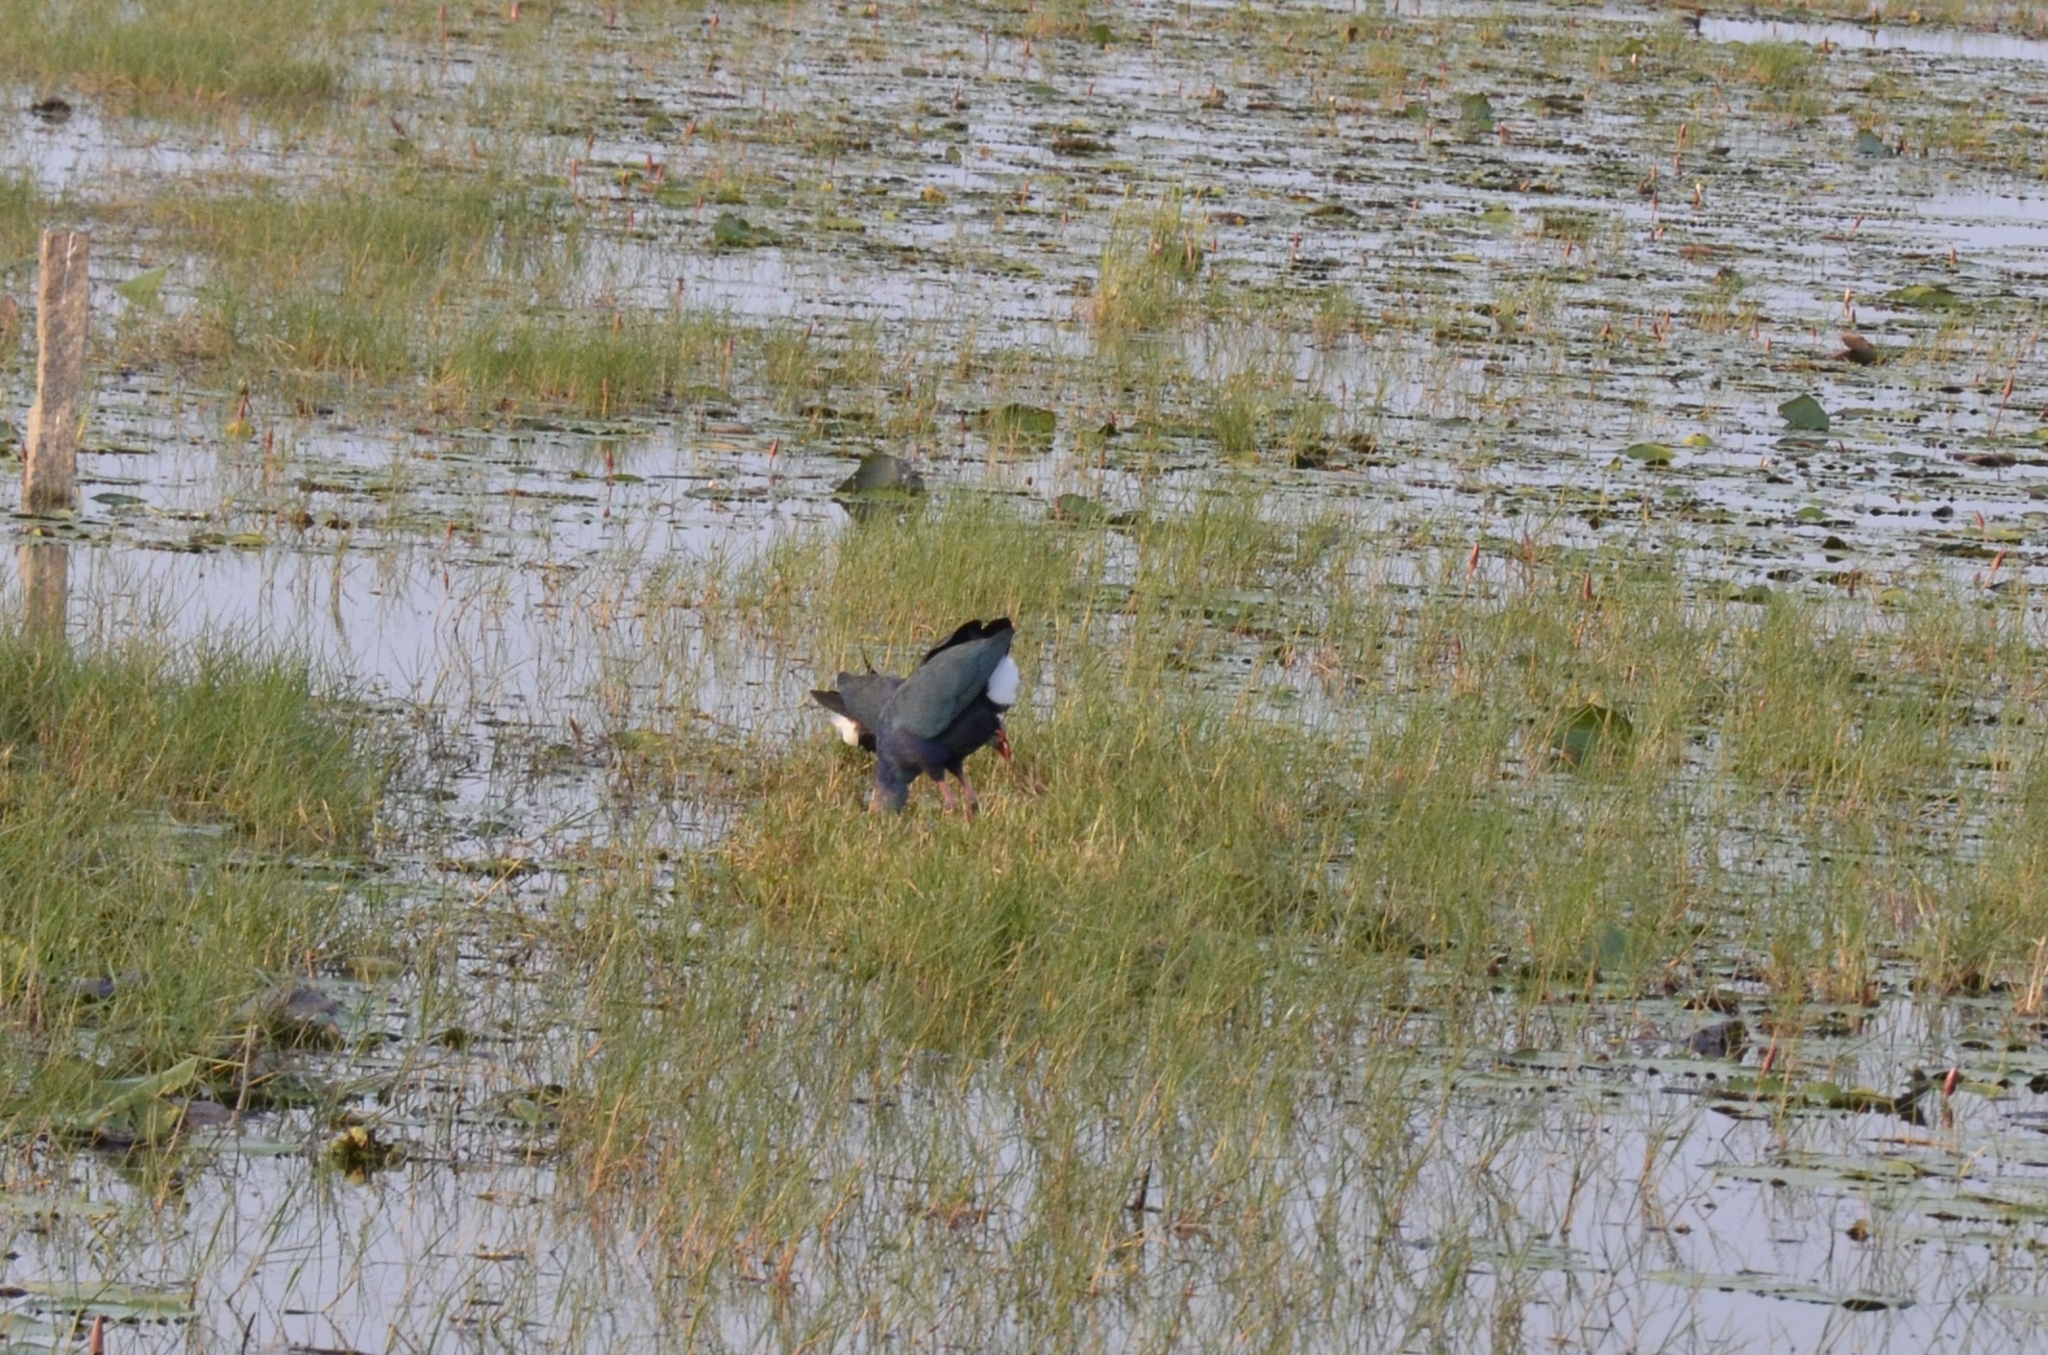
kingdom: Animalia
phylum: Chordata
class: Aves
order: Gruiformes
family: Rallidae
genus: Porphyrio
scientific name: Porphyrio porphyrio
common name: Purple swamphen
